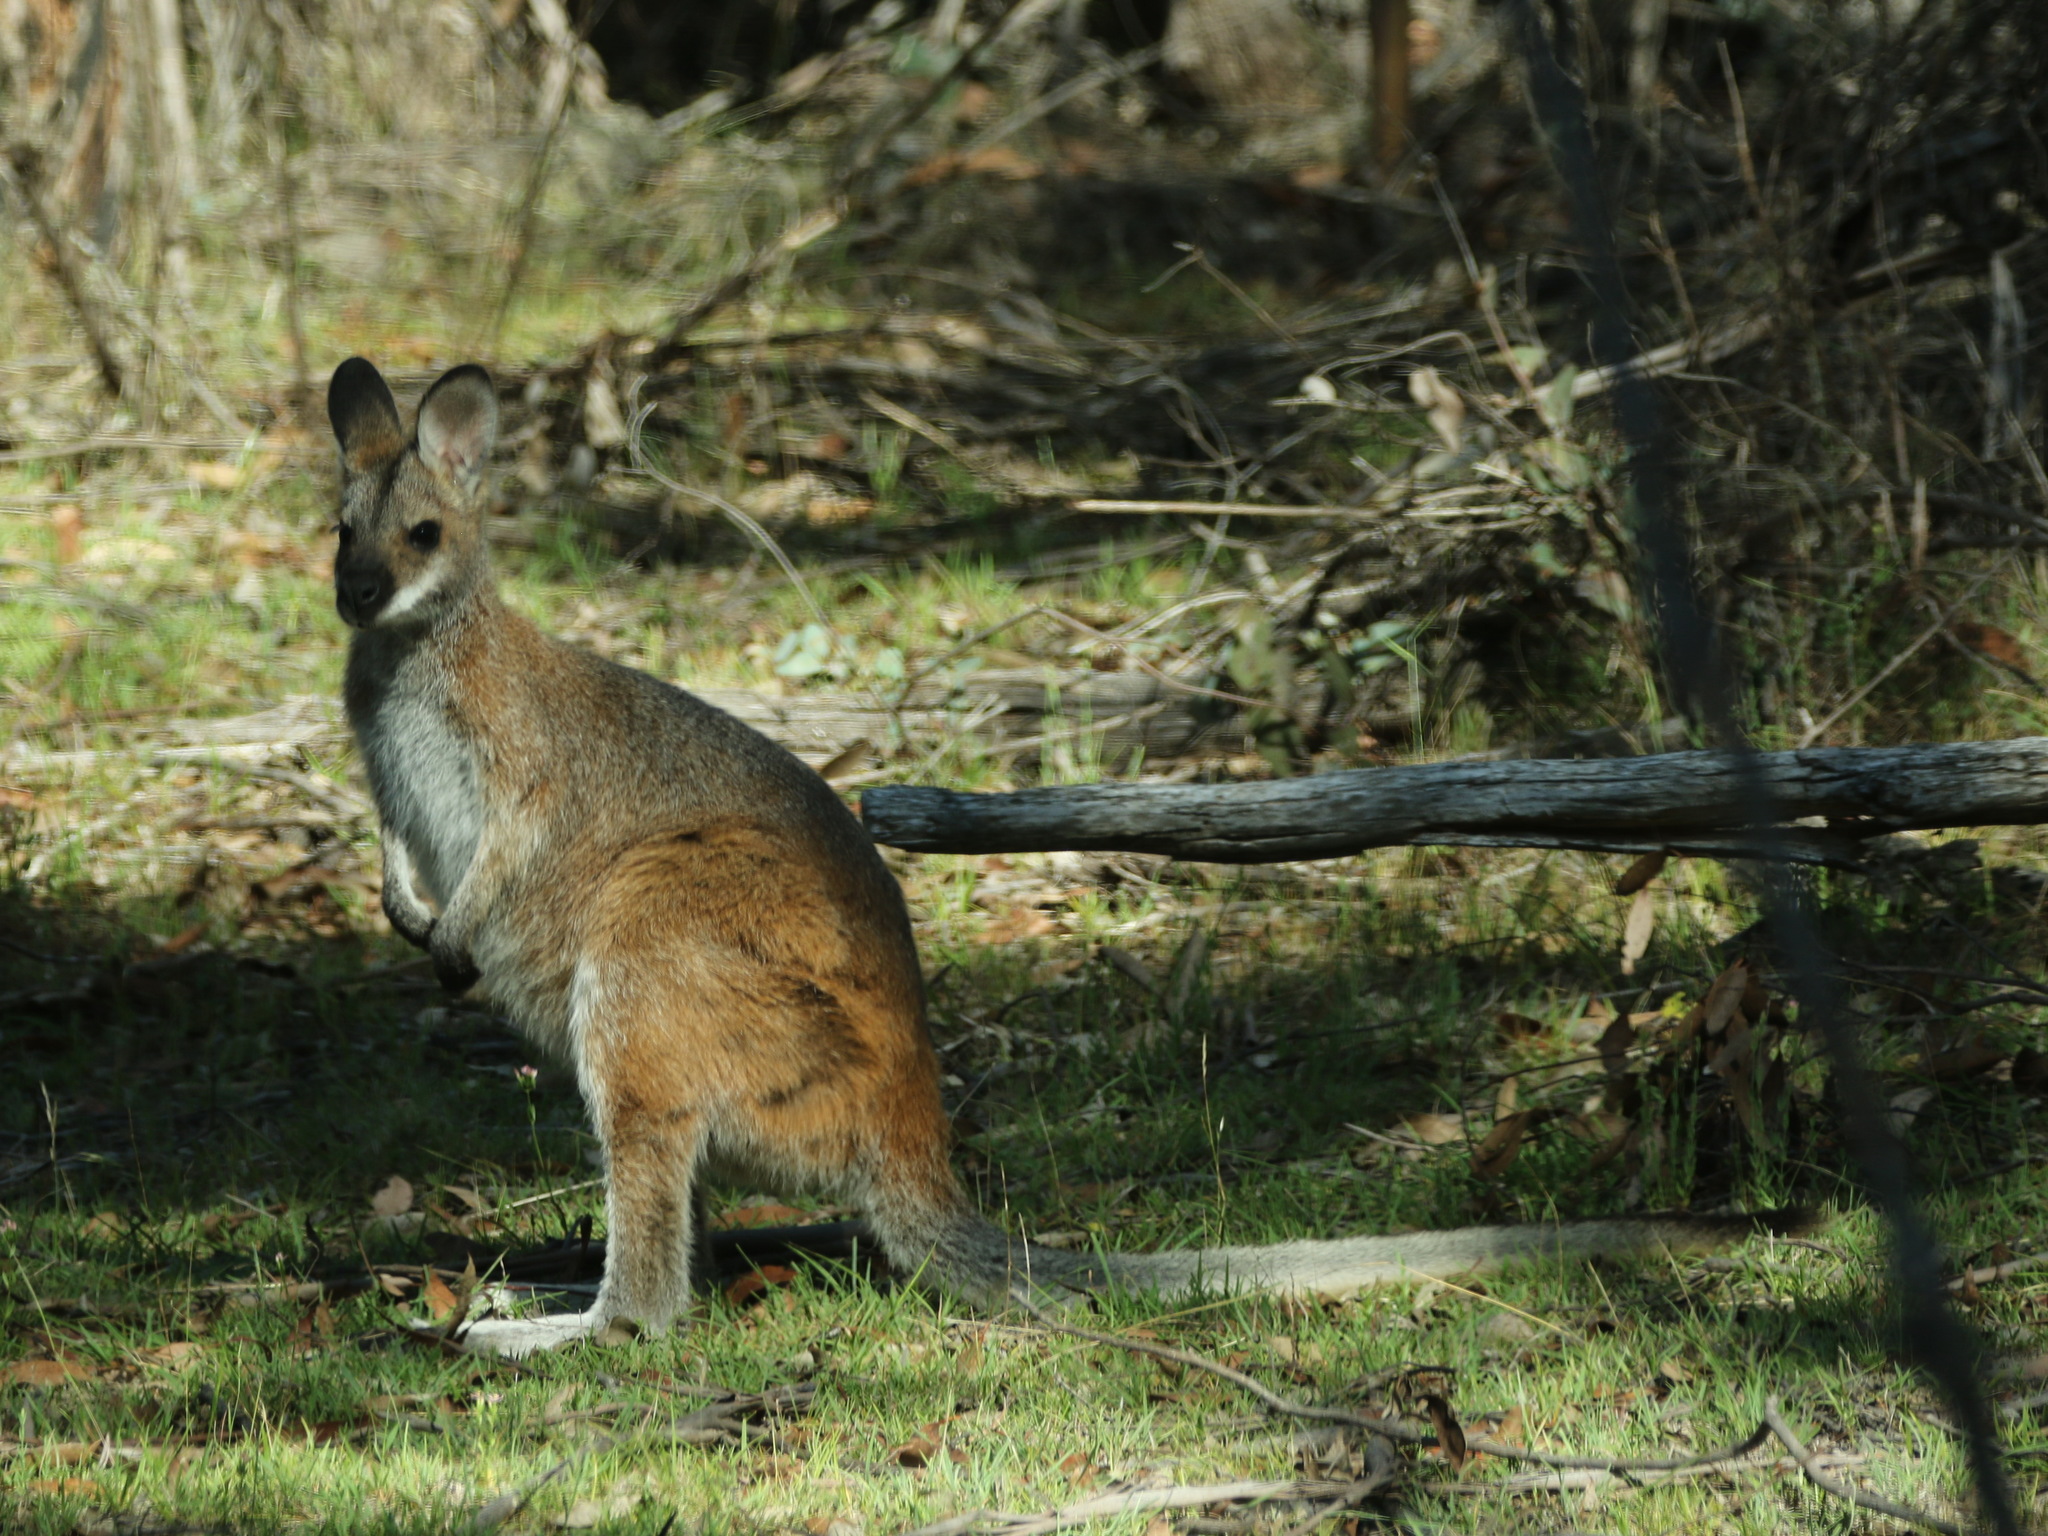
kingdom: Animalia
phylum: Chordata
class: Mammalia
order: Diprotodontia
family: Macropodidae
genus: Notamacropus
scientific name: Notamacropus rufogriseus
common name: Red-necked wallaby
